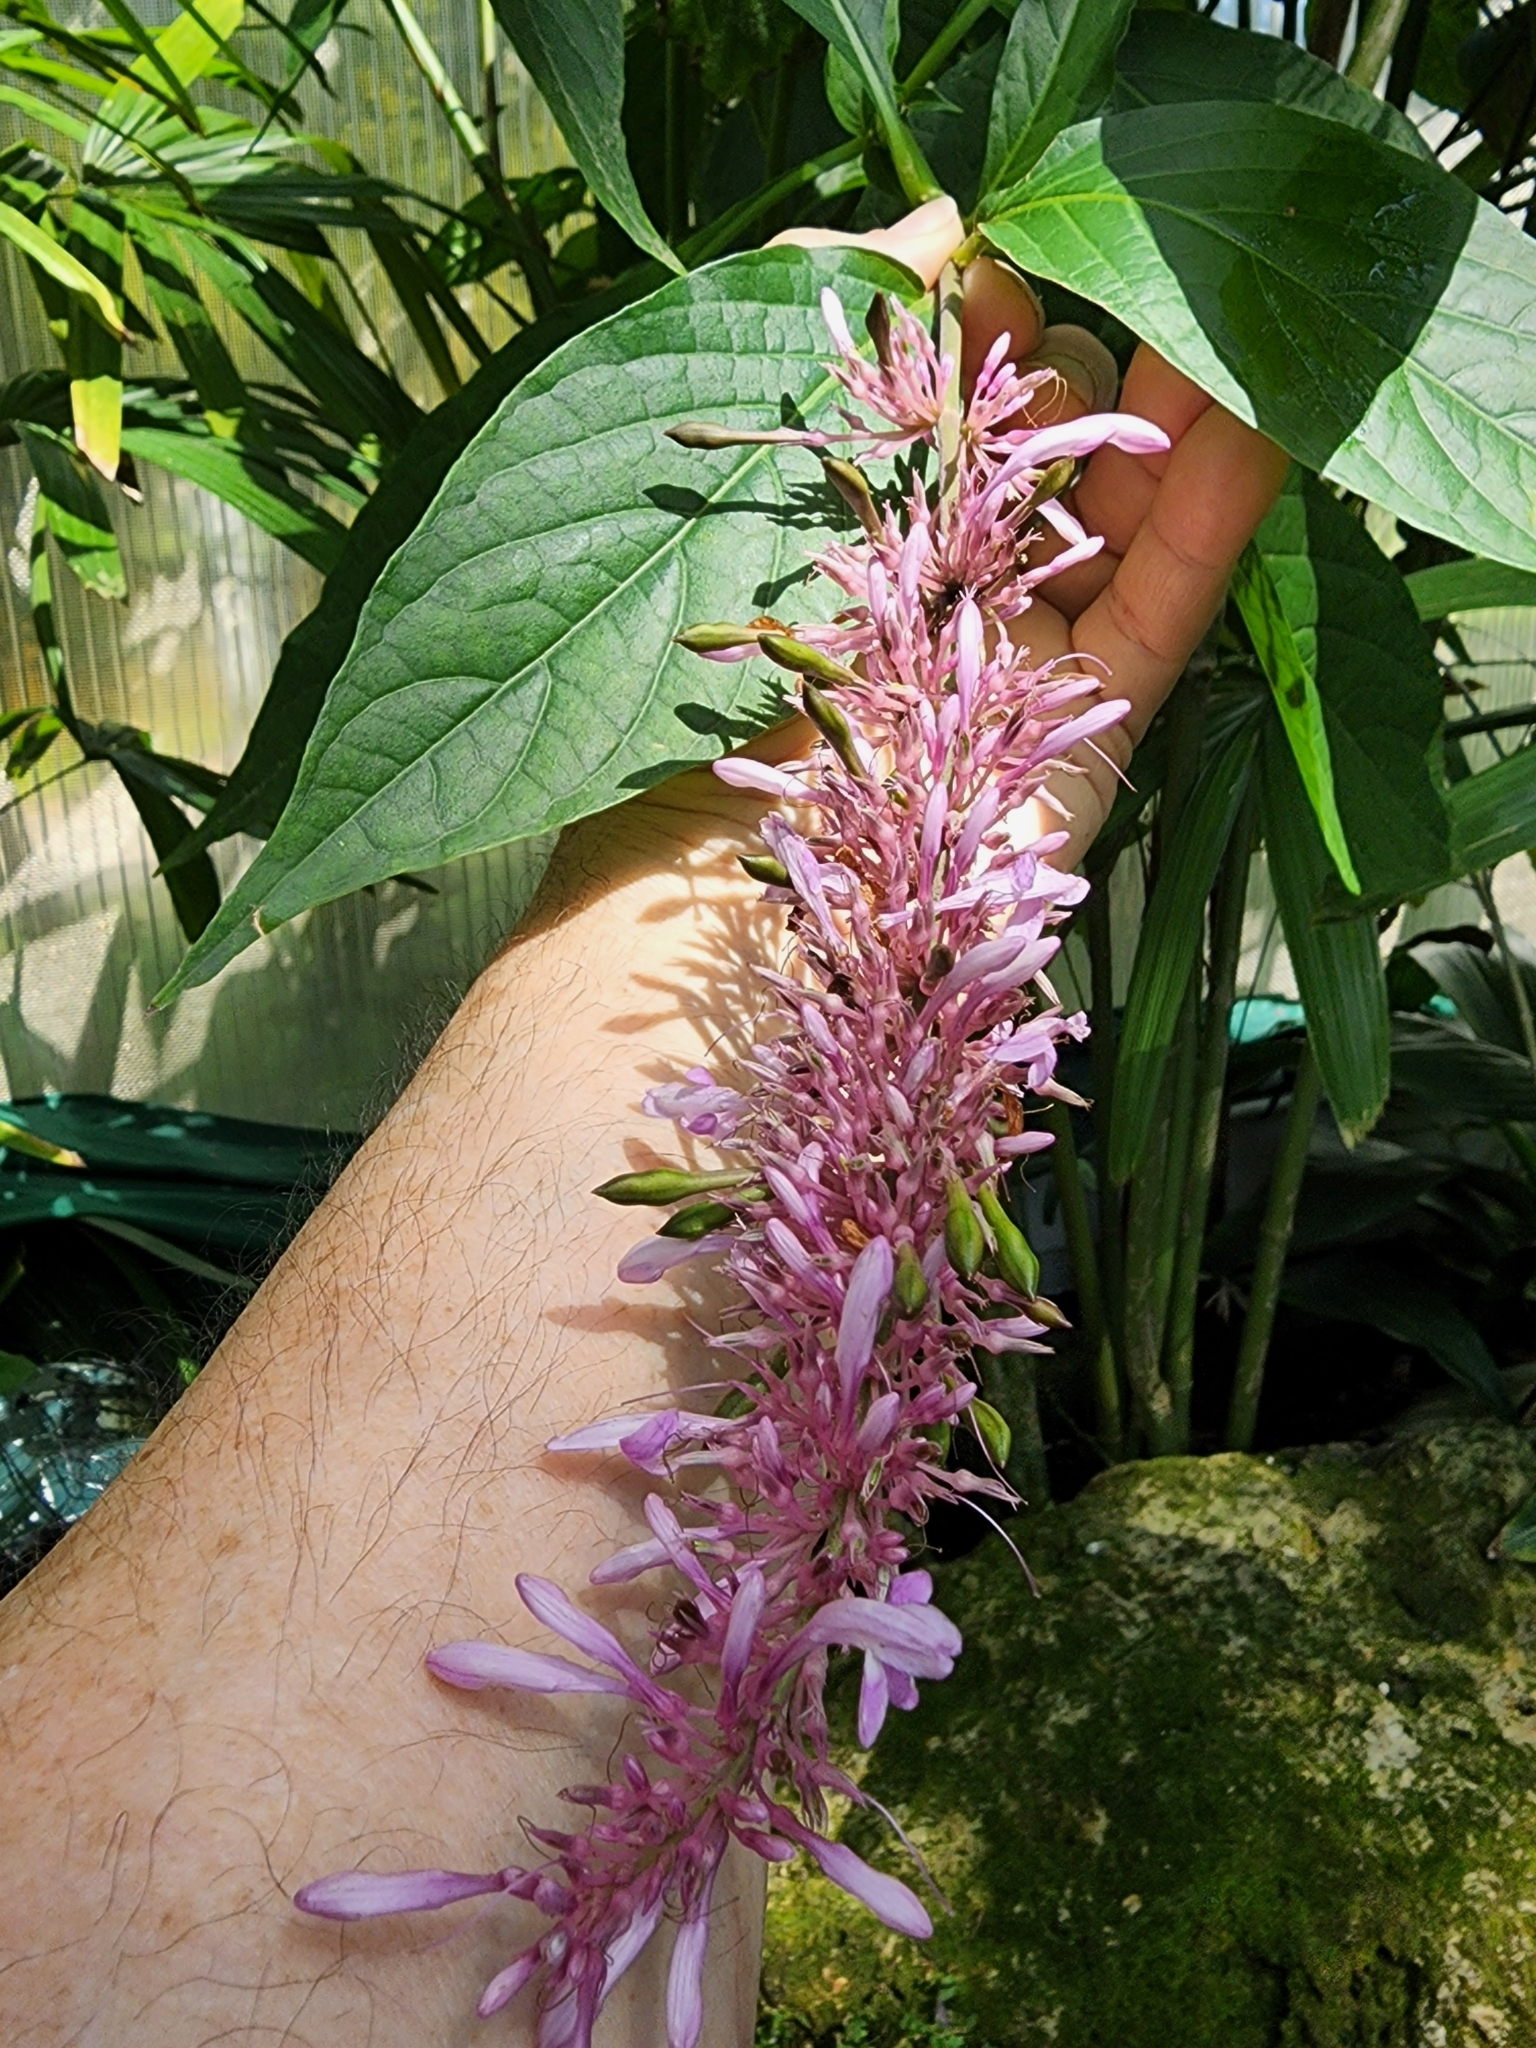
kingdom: Plantae
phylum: Tracheophyta
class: Magnoliopsida
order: Lamiales
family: Acanthaceae
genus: Odontonema
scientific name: Odontonema callistachyum
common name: Firespike
